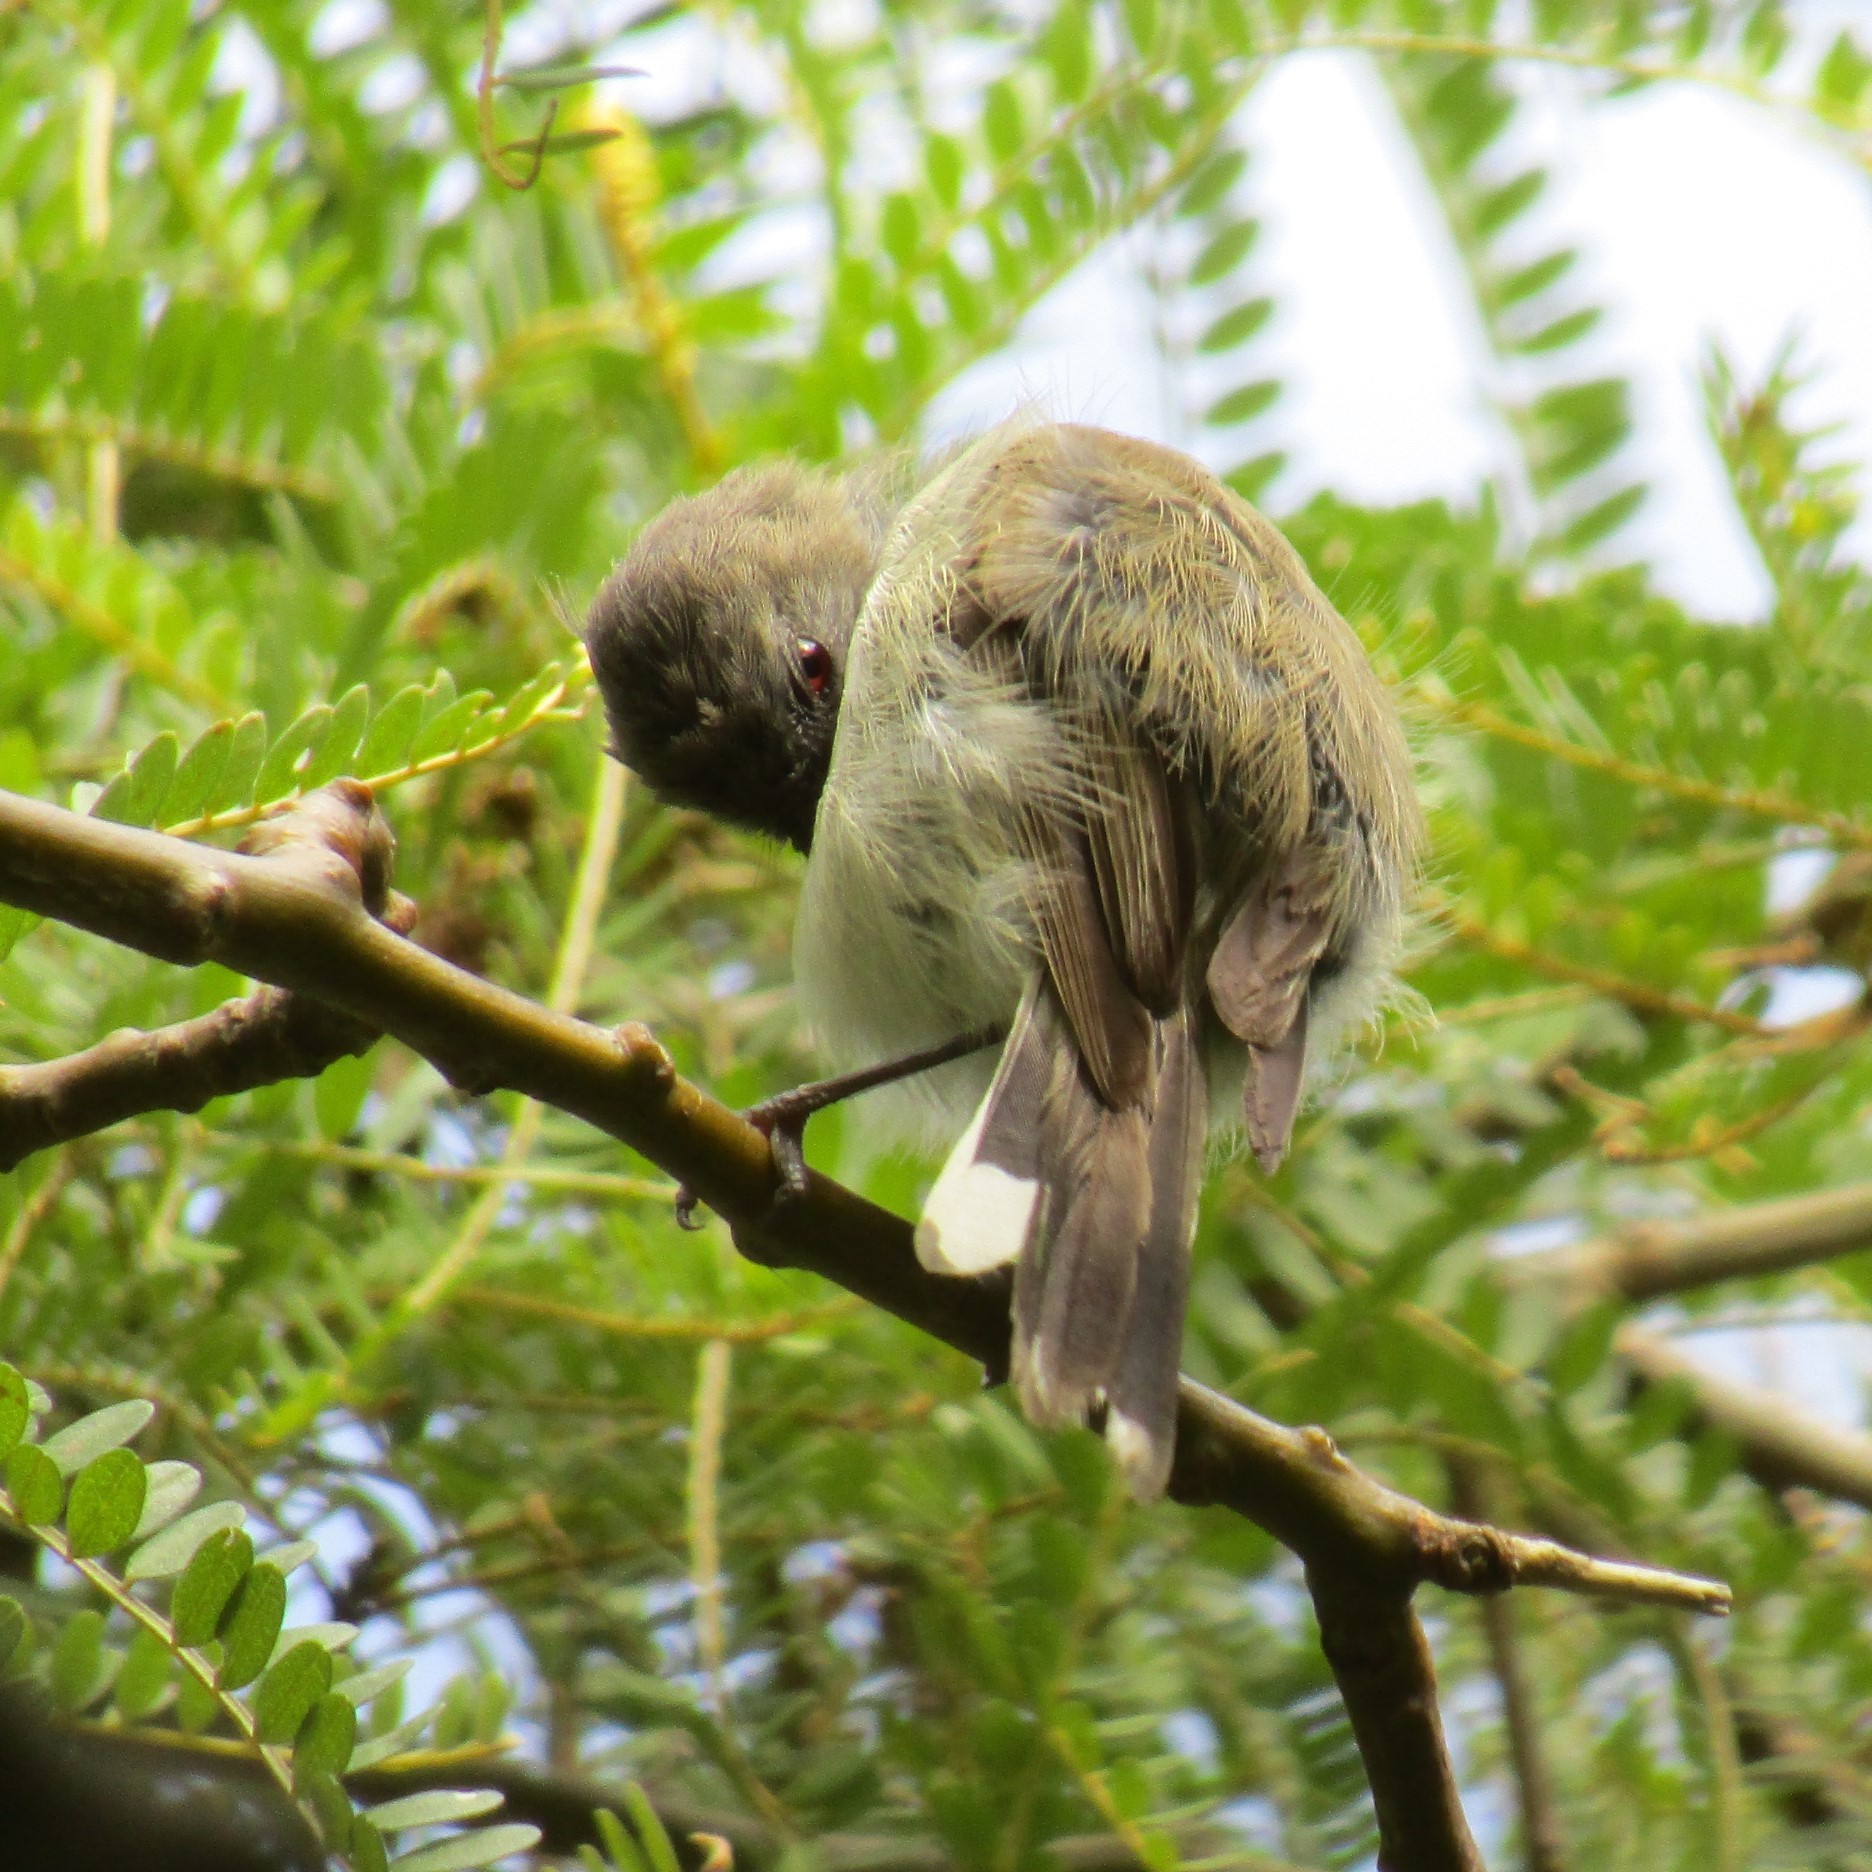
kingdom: Animalia
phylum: Chordata
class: Aves
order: Passeriformes
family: Acanthizidae
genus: Gerygone
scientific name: Gerygone igata
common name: Grey gerygone
